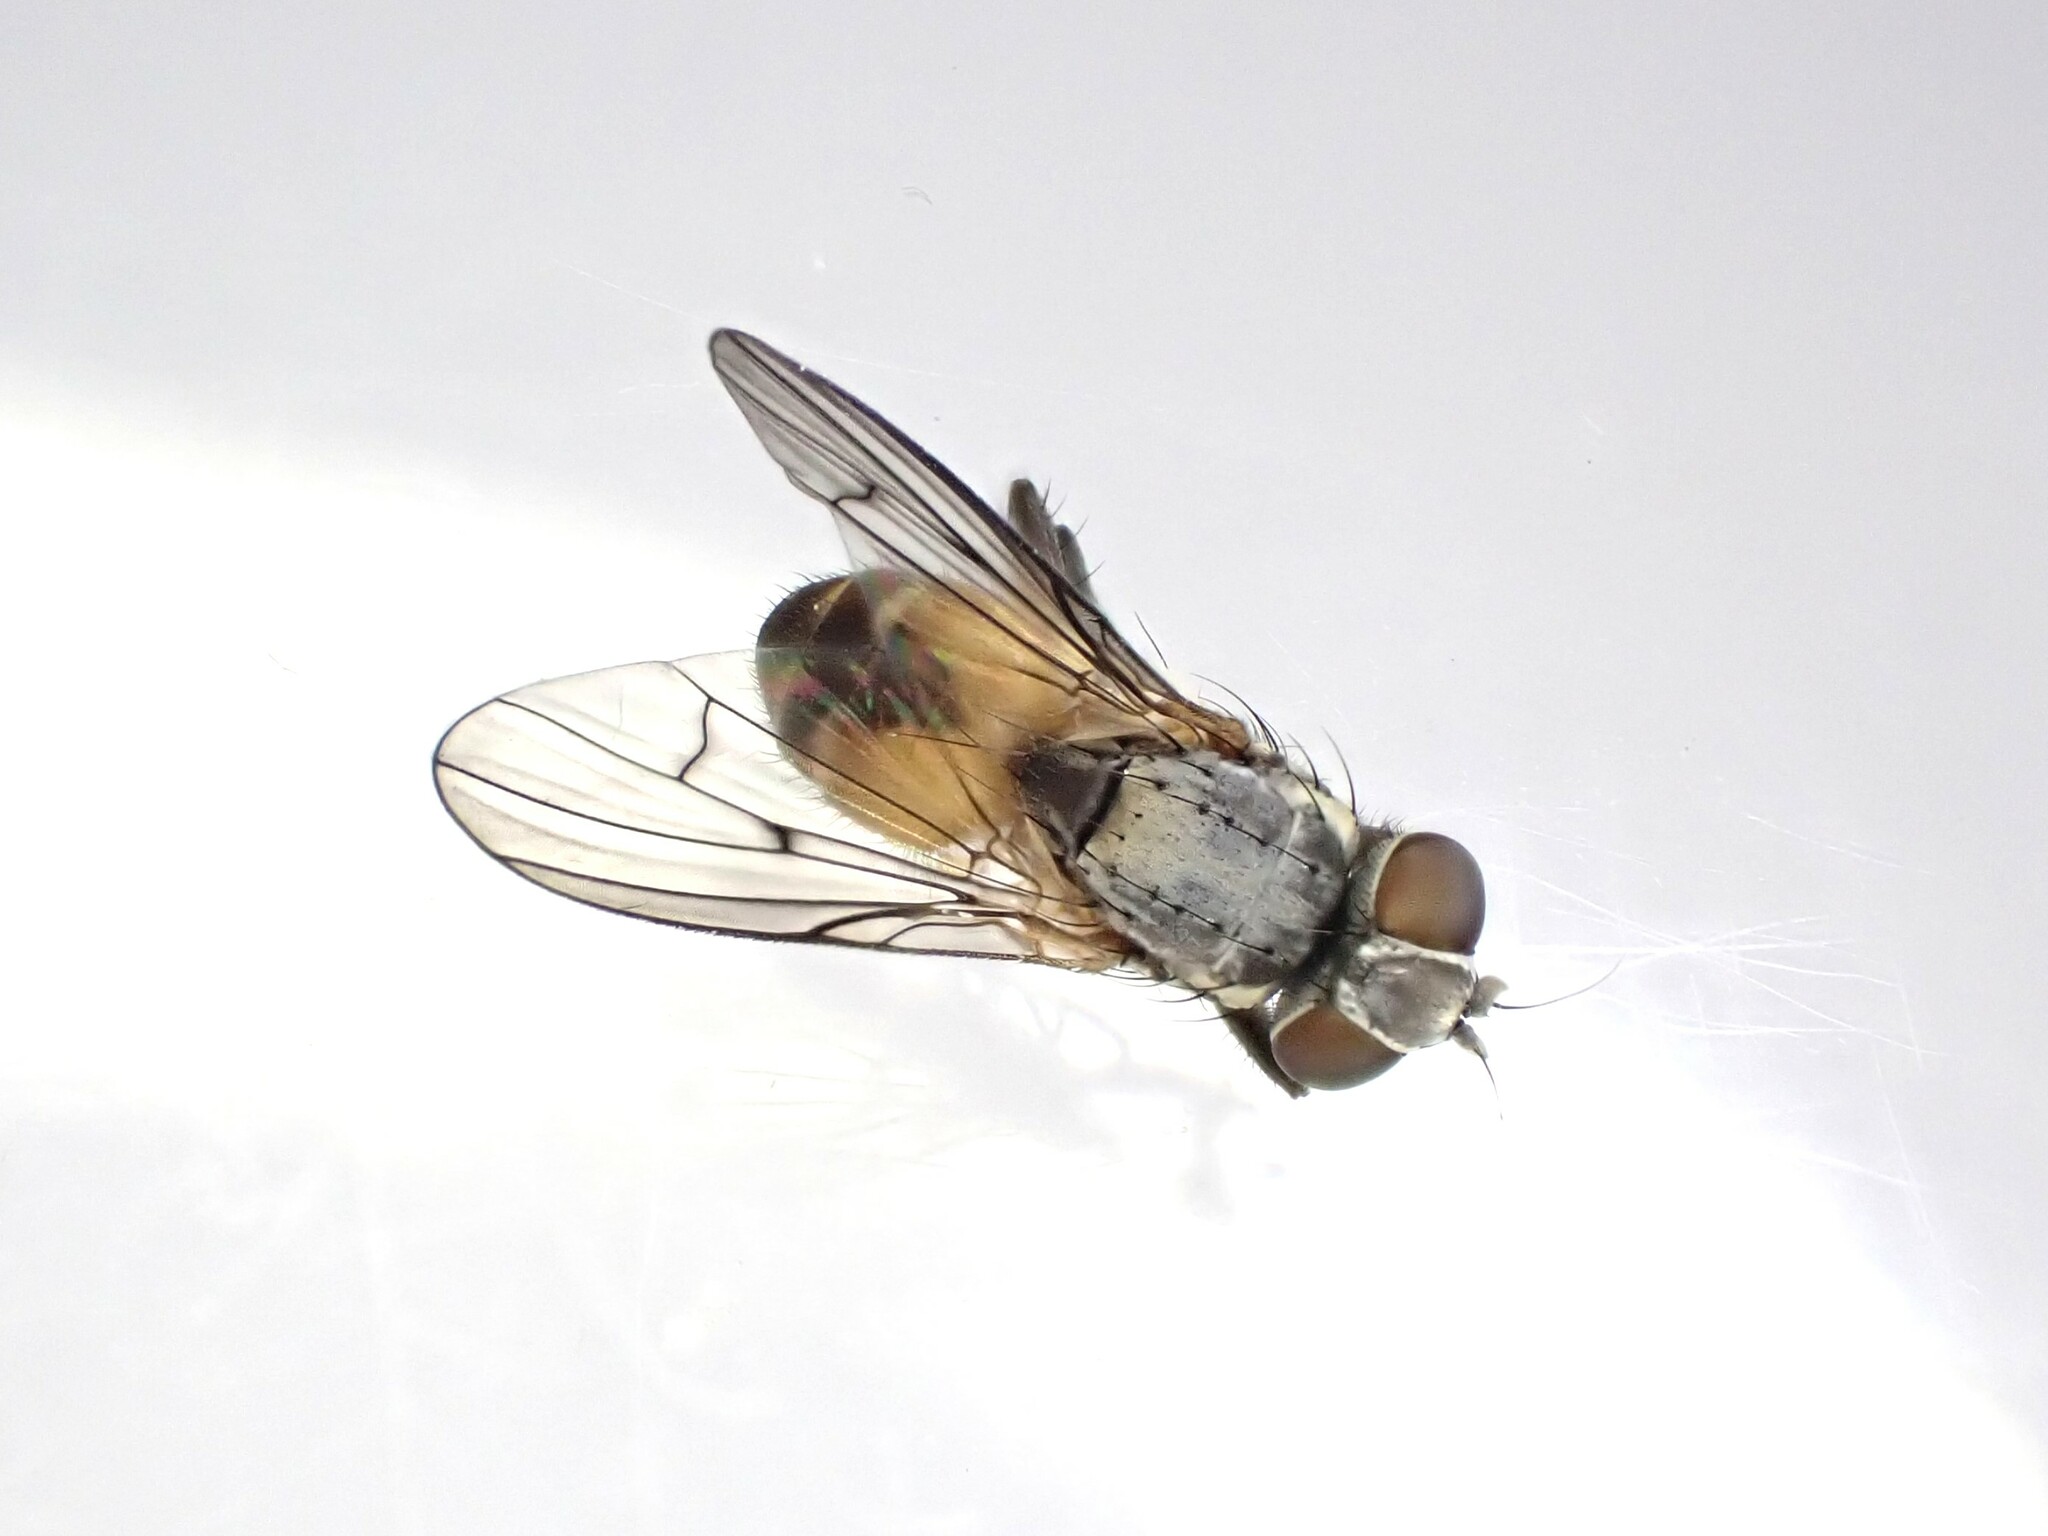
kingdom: Animalia
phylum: Arthropoda
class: Insecta
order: Diptera
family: Muscidae
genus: Spilogona
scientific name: Spilogona flaviventris
